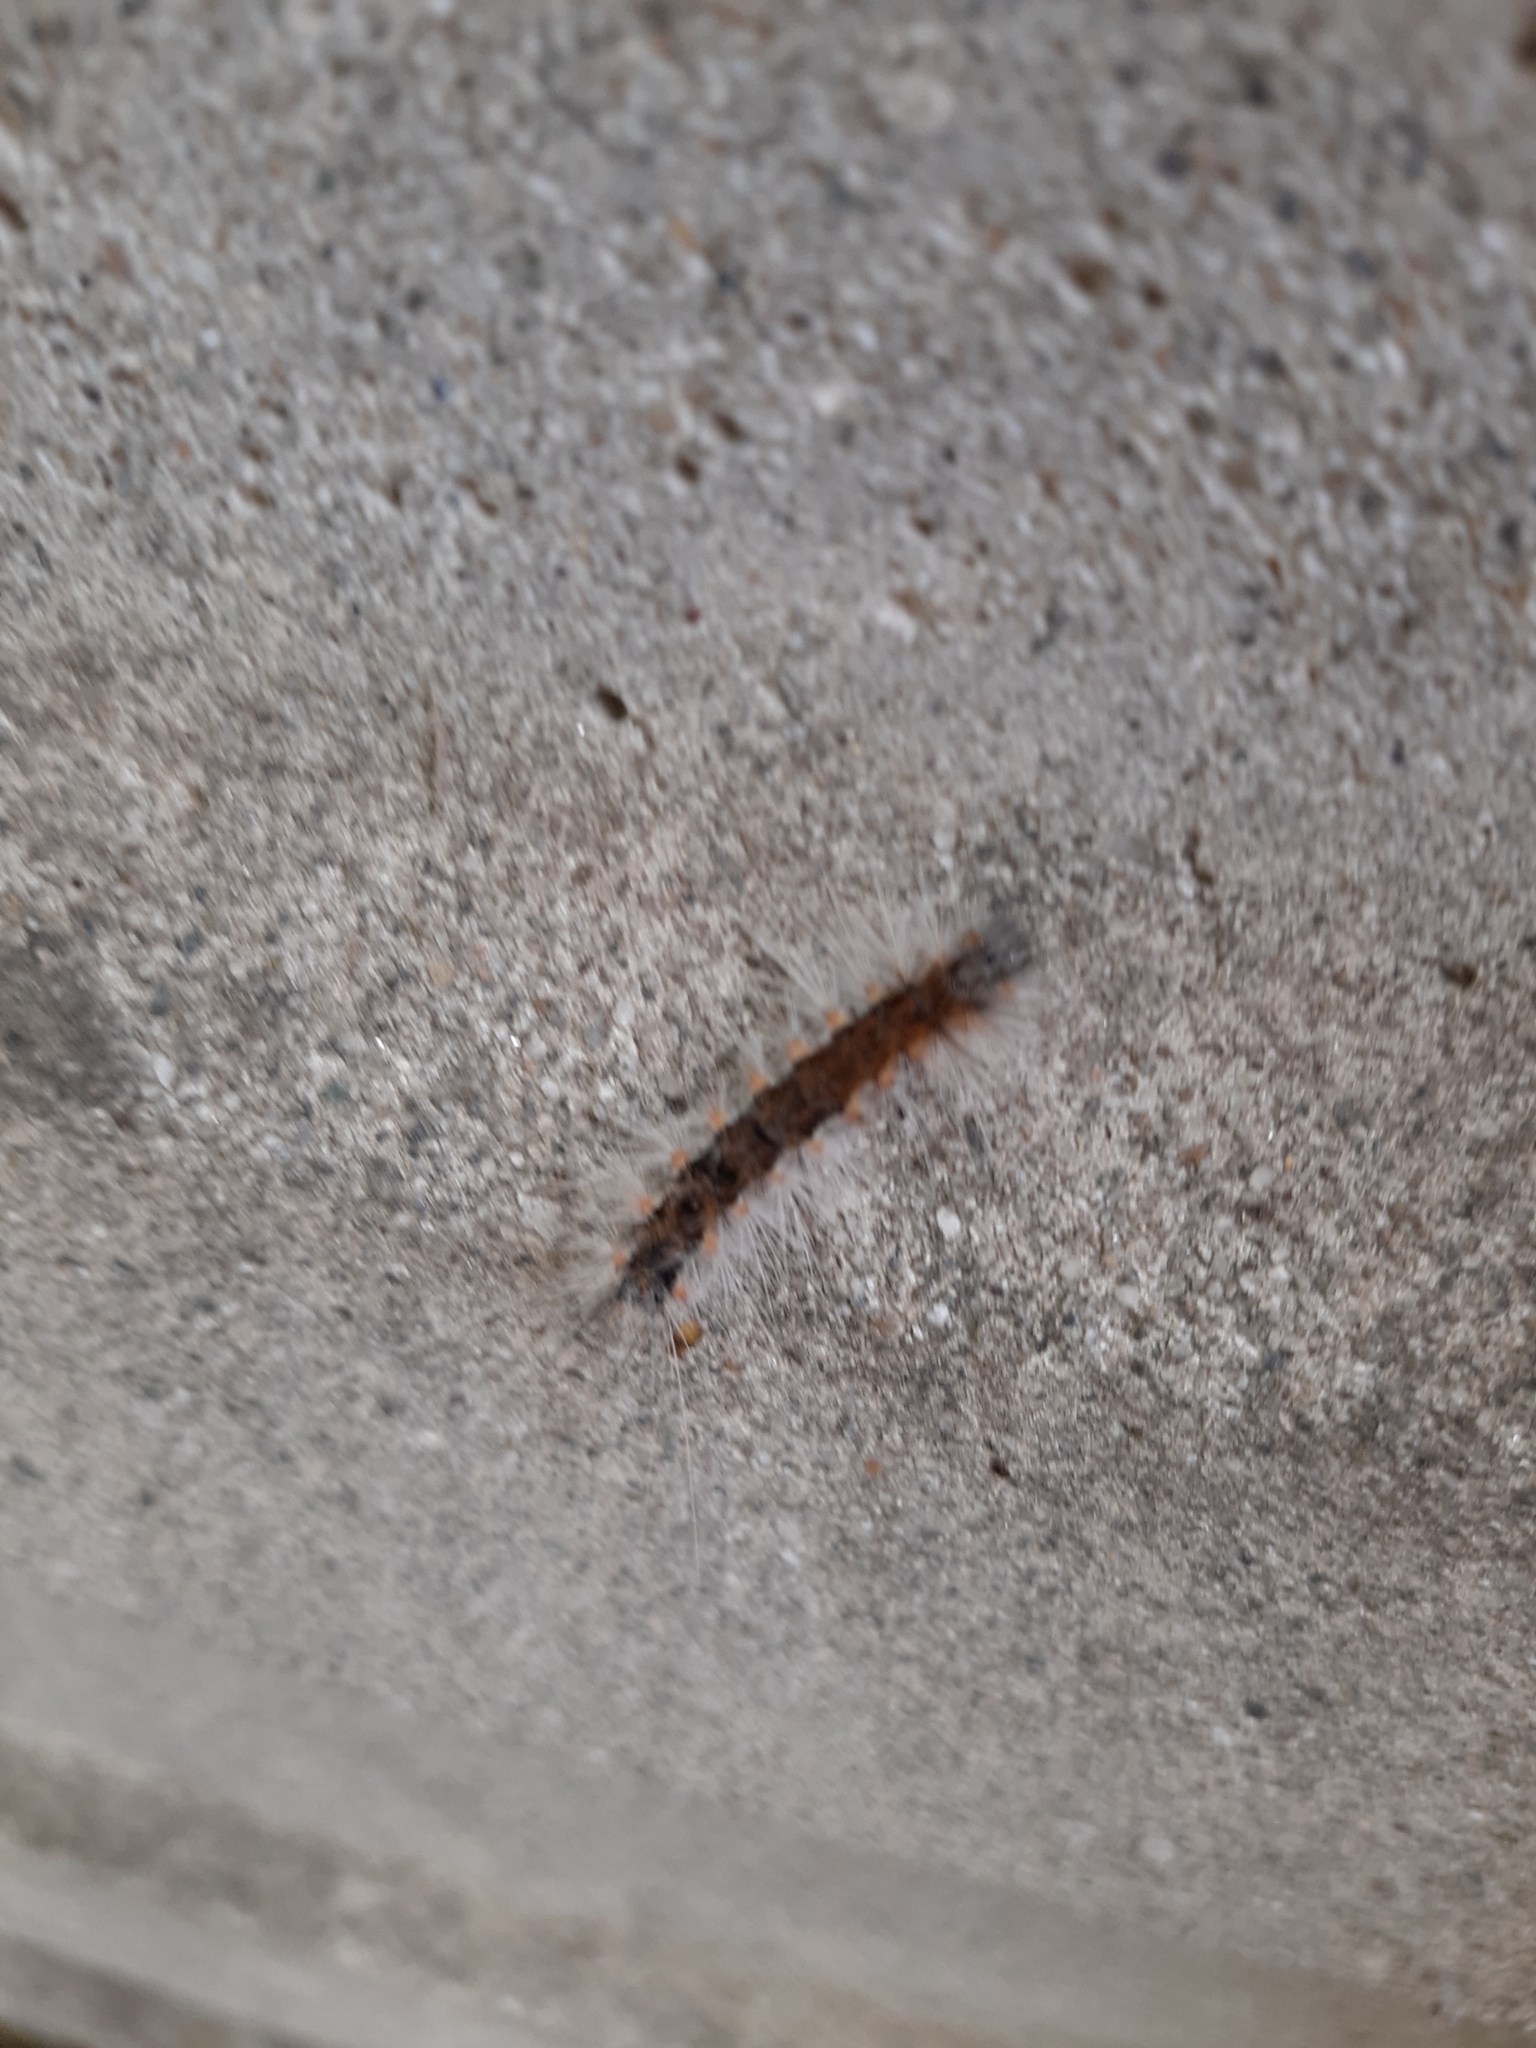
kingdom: Animalia
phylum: Arthropoda
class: Insecta
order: Lepidoptera
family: Erebidae
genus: Hyphantria
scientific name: Hyphantria cunea
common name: American white moth
